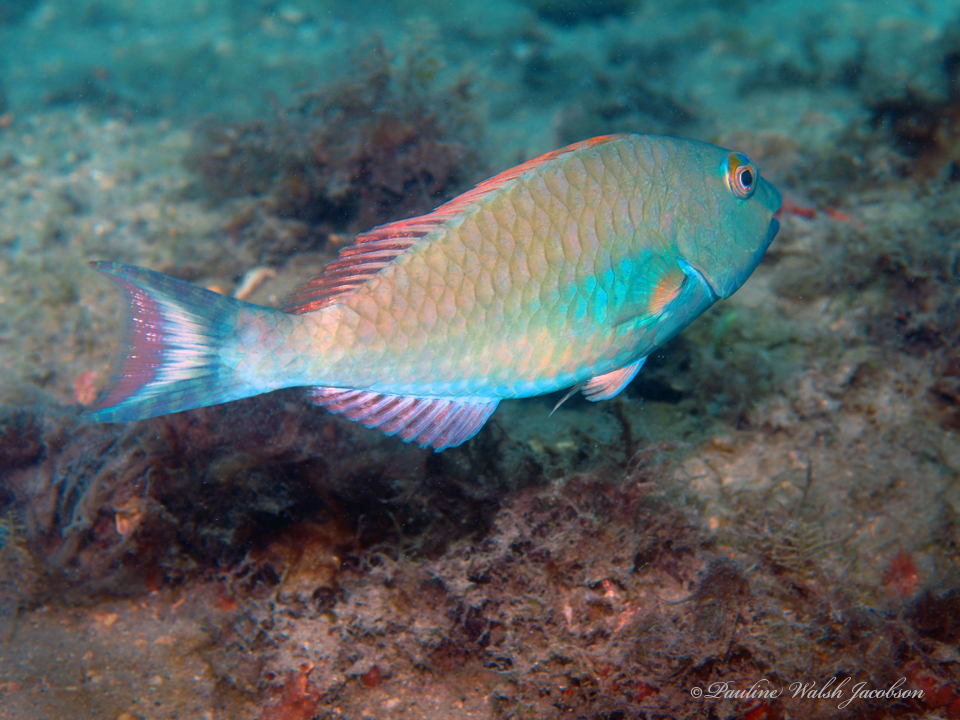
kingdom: Animalia
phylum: Chordata
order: Perciformes
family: Scaridae
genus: Sparisoma
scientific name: Sparisoma chrysopterum
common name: Redtail parrotfish
